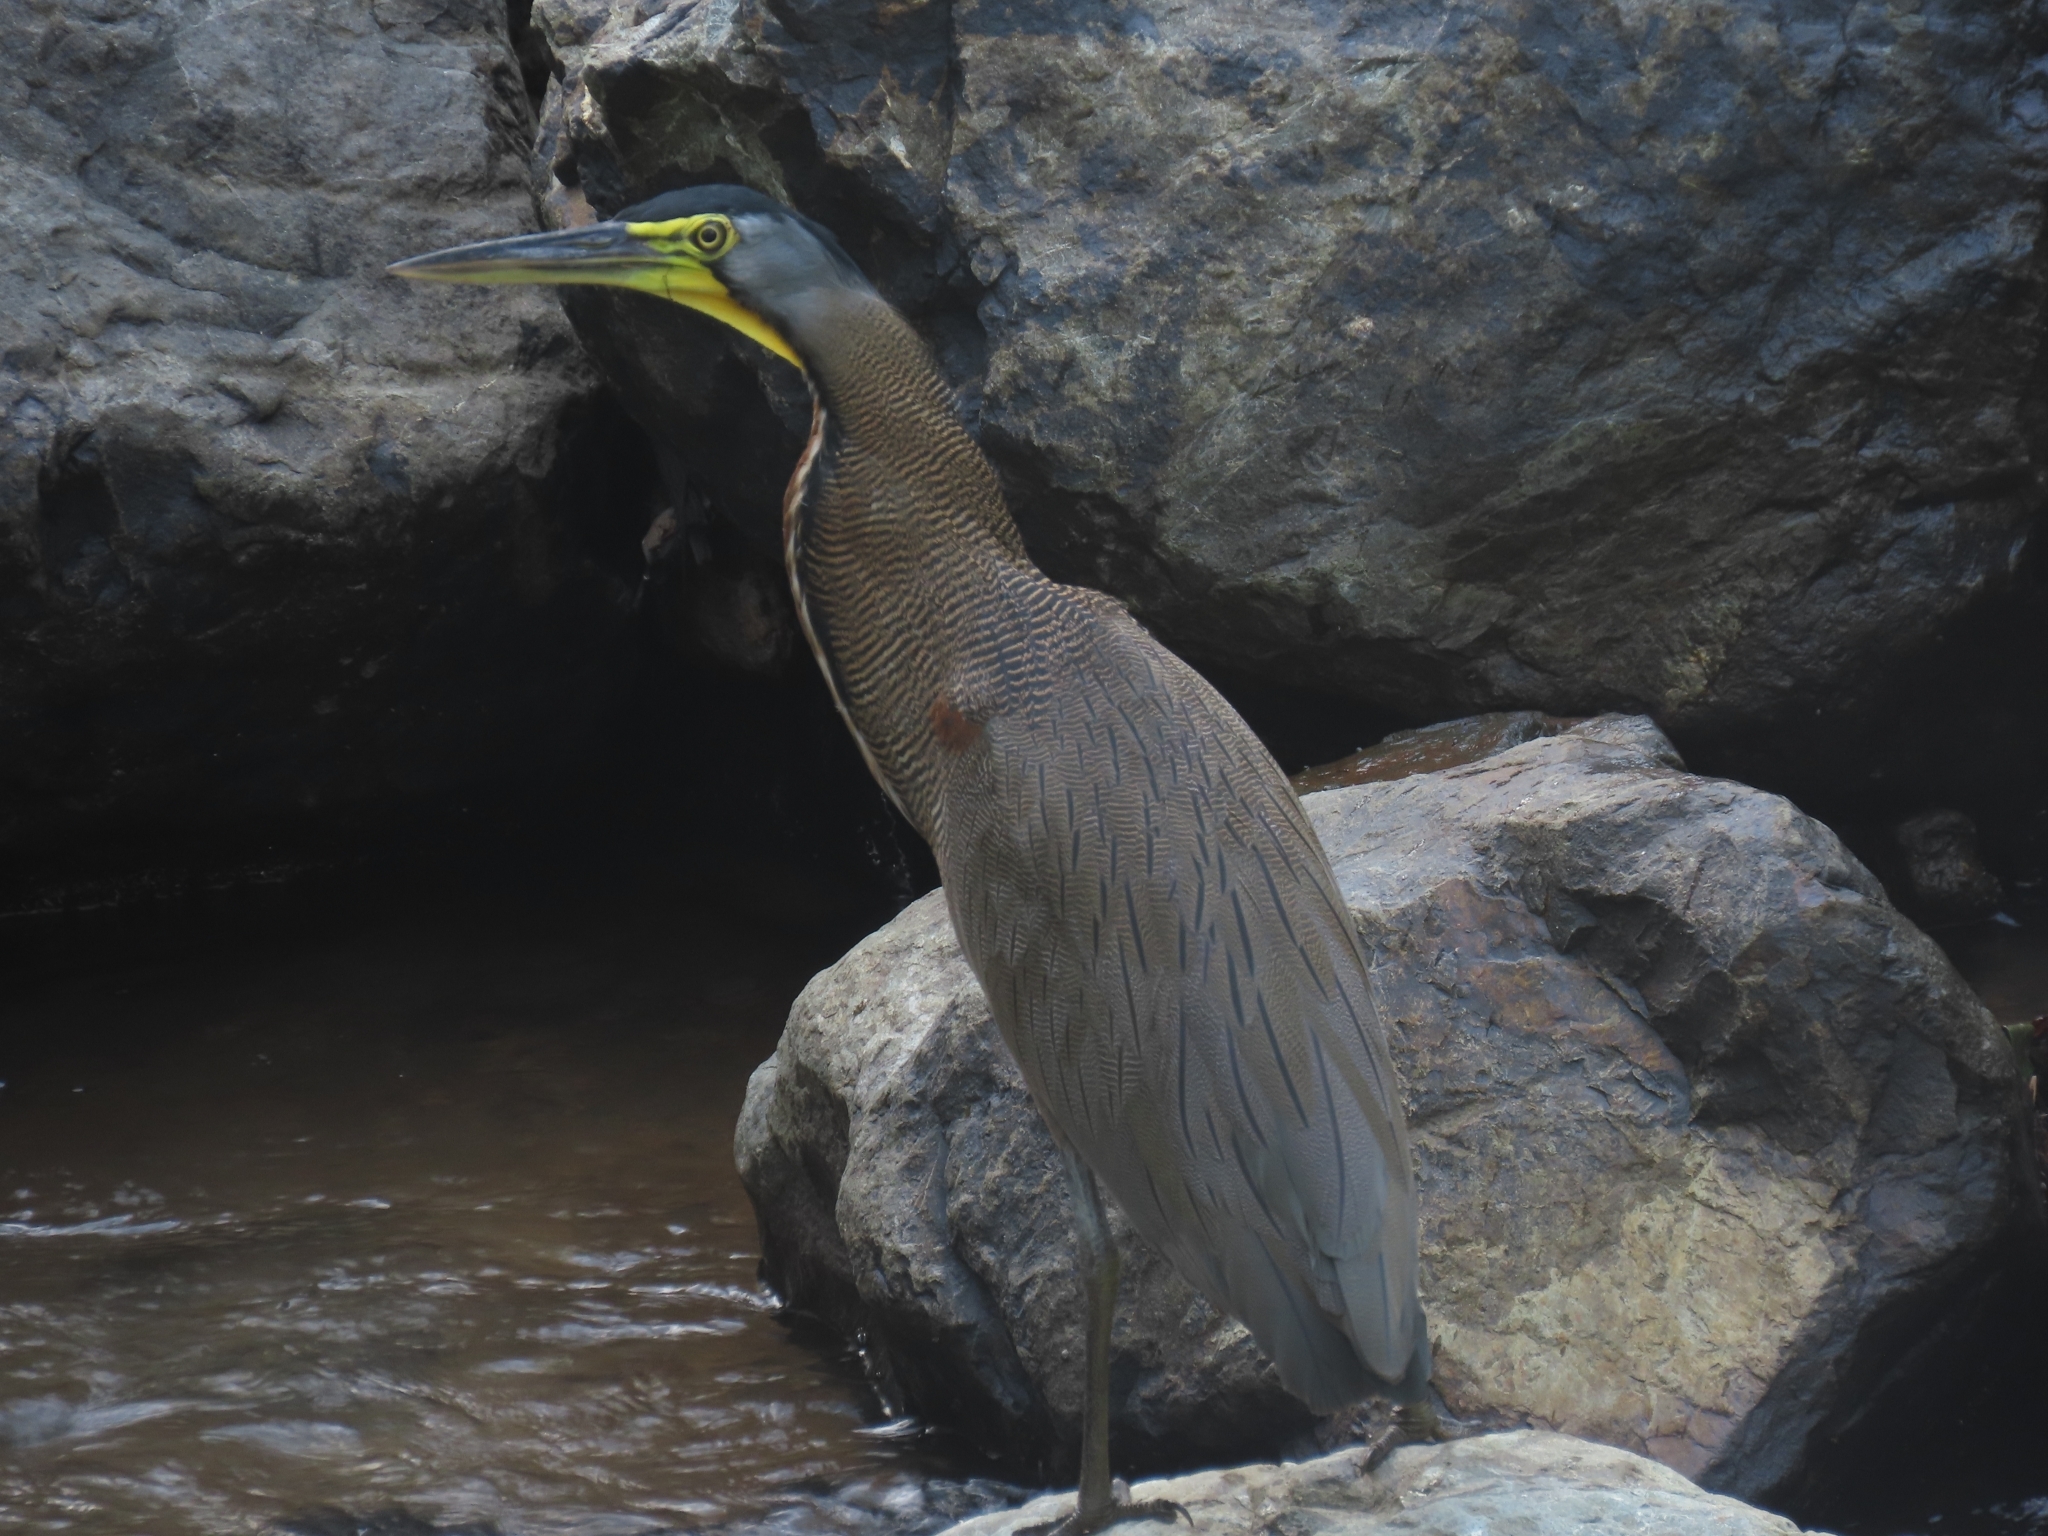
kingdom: Animalia
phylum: Chordata
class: Aves
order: Pelecaniformes
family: Ardeidae
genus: Tigrisoma
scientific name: Tigrisoma mexicanum
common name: Bare-throated tiger-heron
